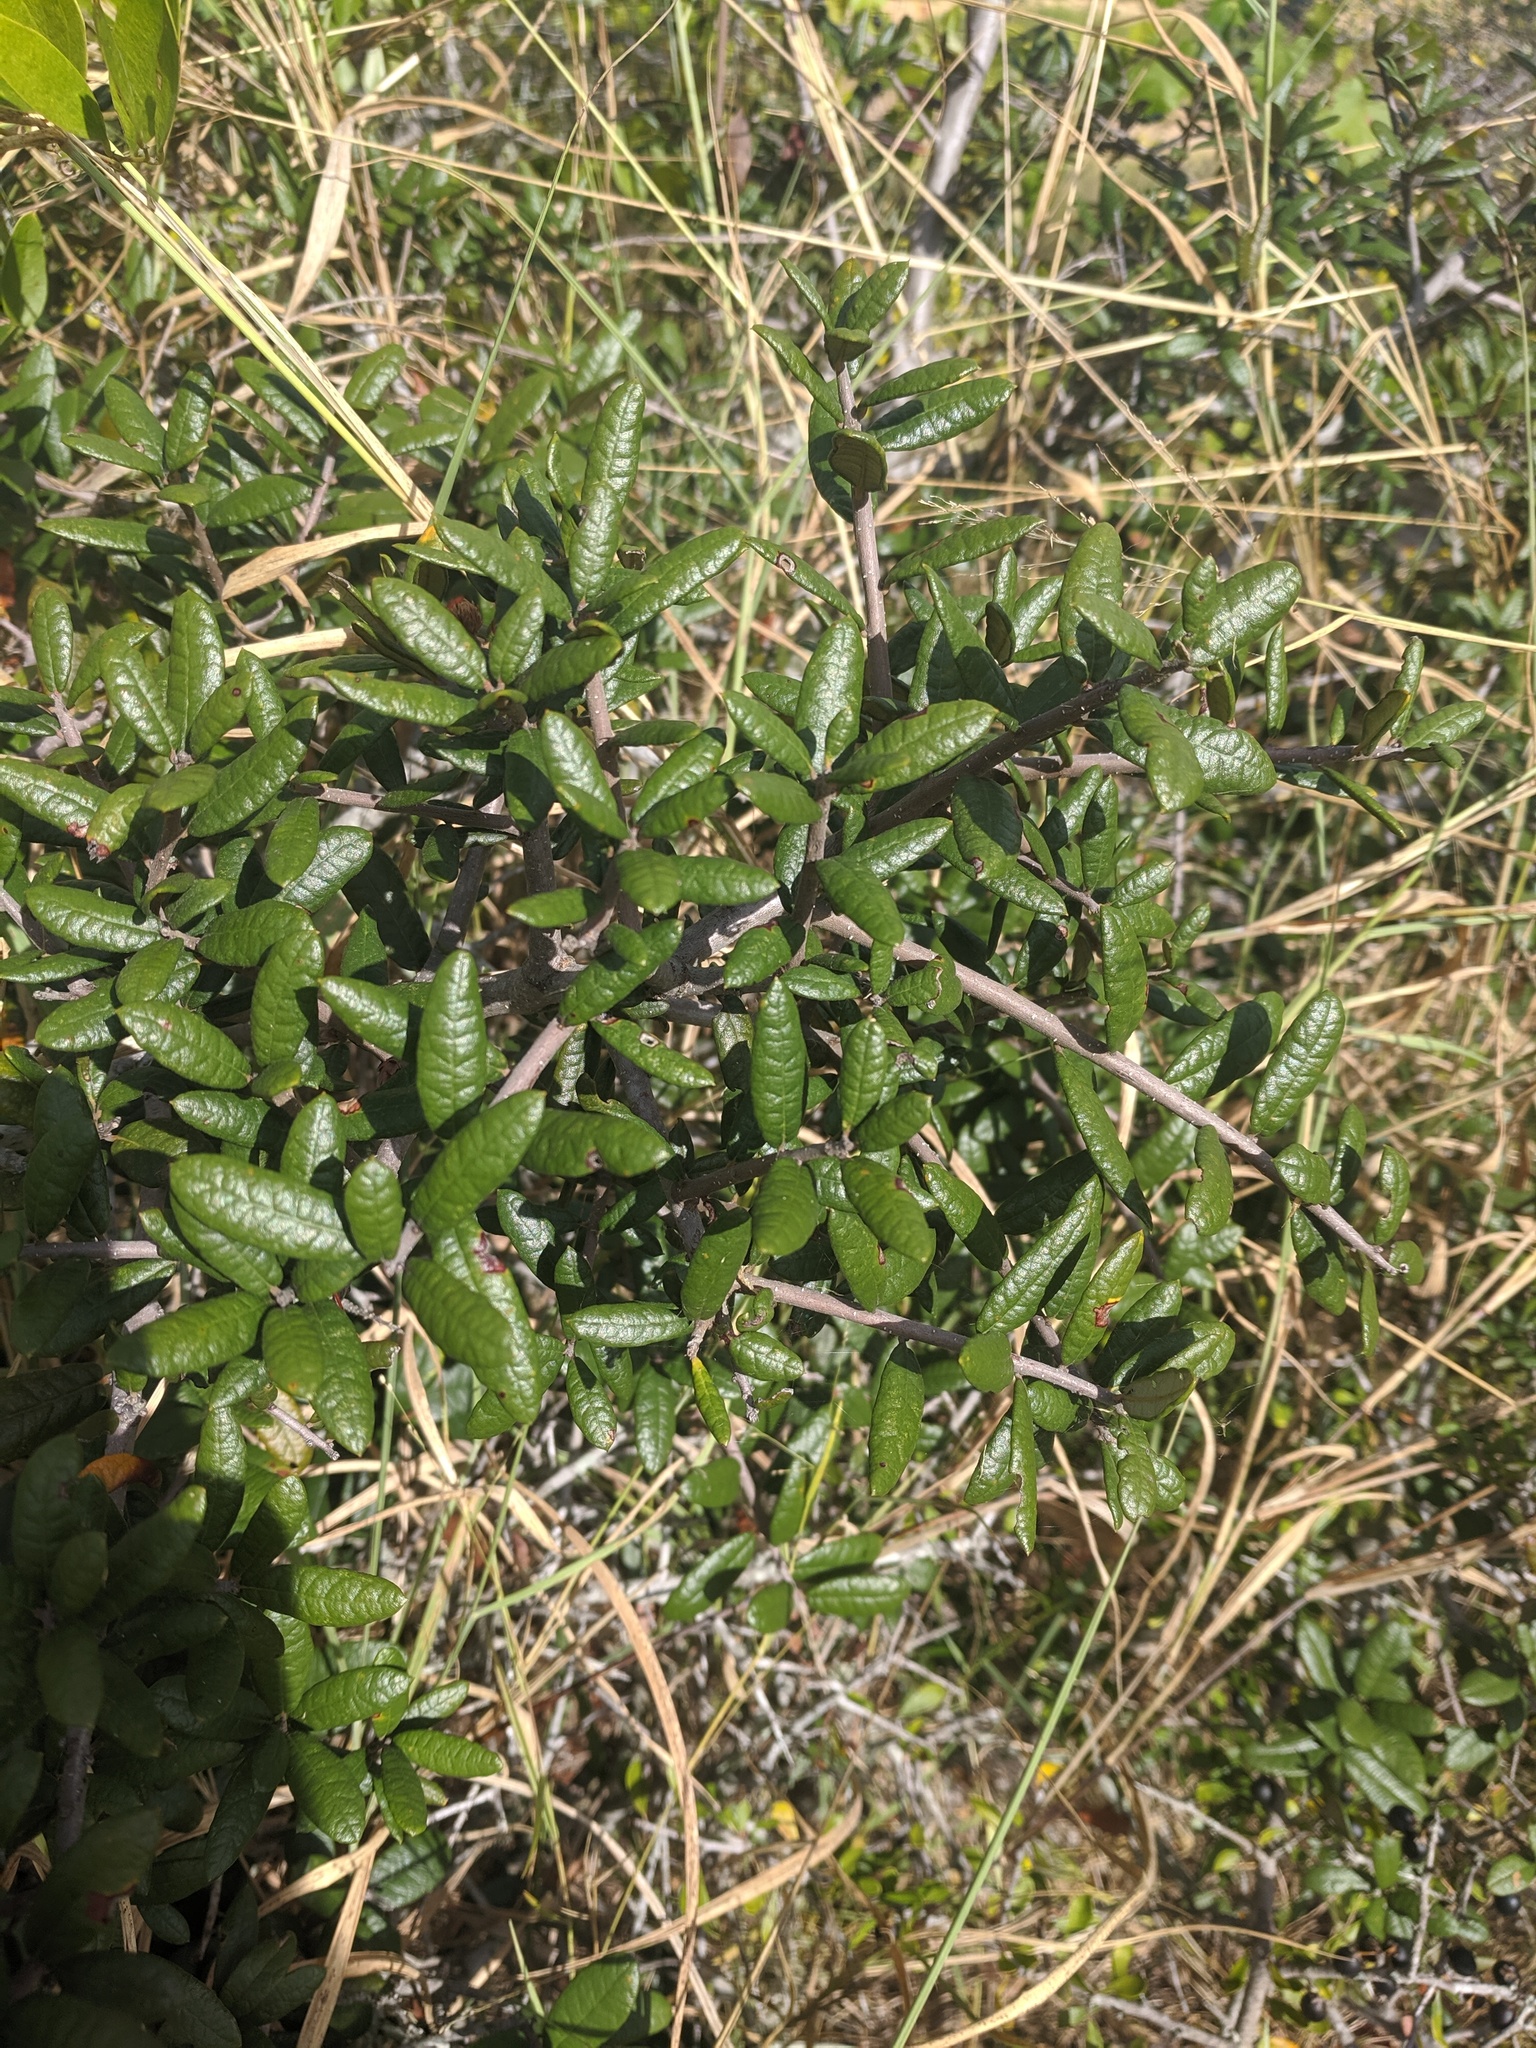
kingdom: Plantae
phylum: Tracheophyta
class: Magnoliopsida
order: Fagales
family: Fagaceae
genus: Quercus
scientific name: Quercus geminata
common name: Sand live oak
